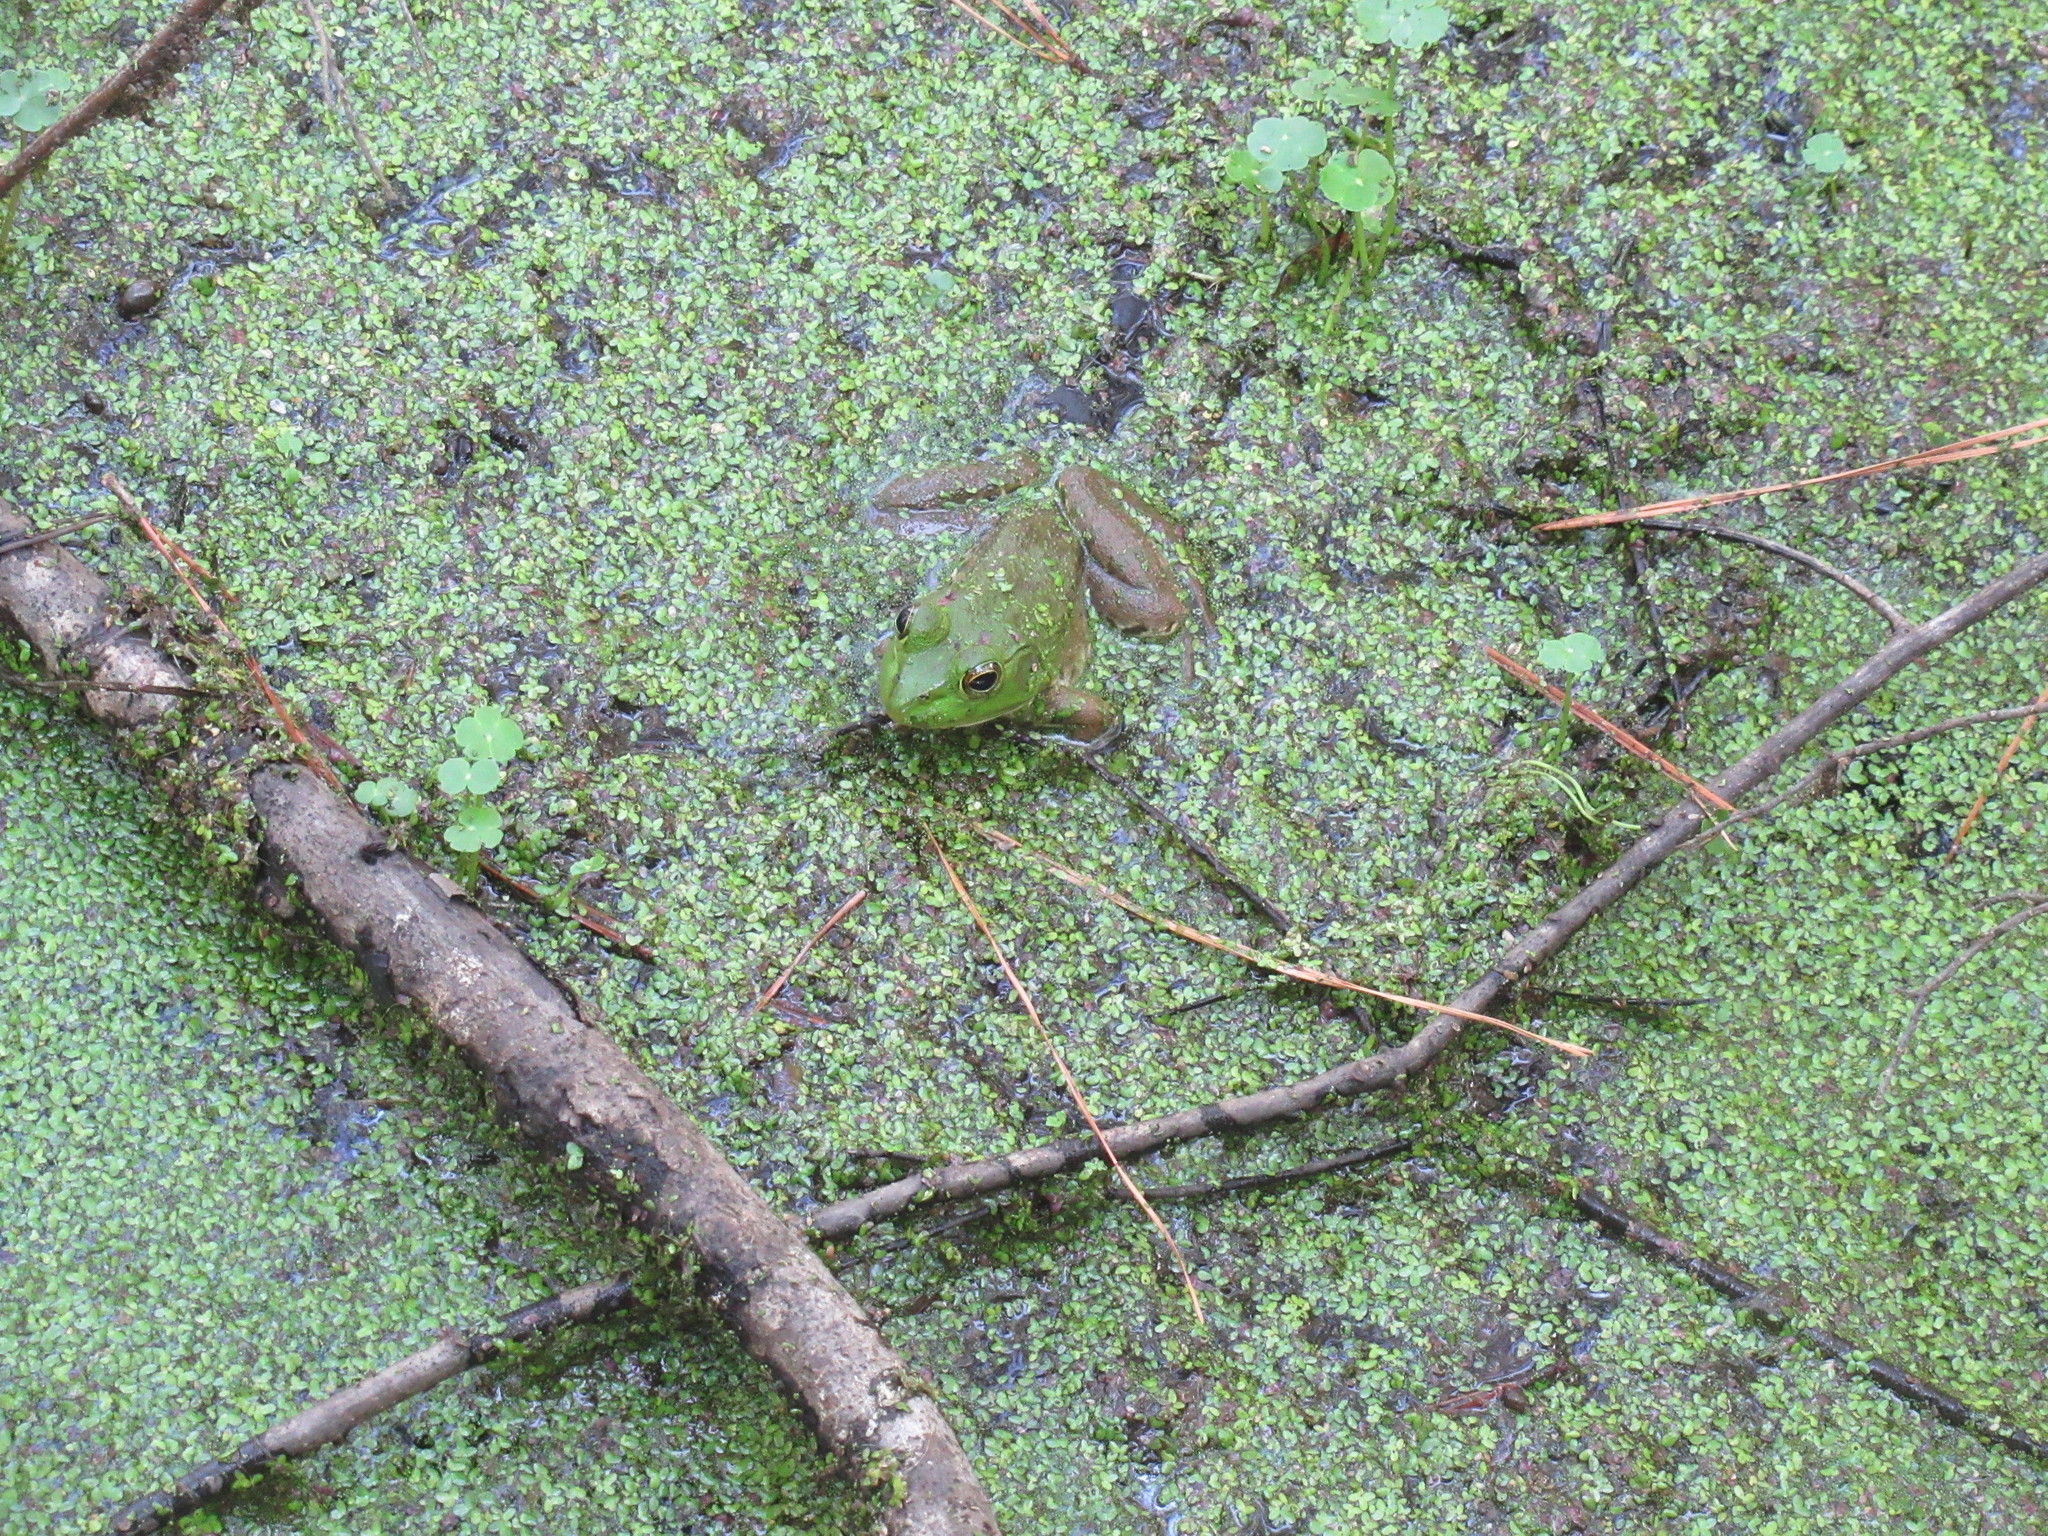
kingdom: Animalia
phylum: Chordata
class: Amphibia
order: Anura
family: Ranidae
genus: Lithobates
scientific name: Lithobates catesbeianus
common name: American bullfrog
